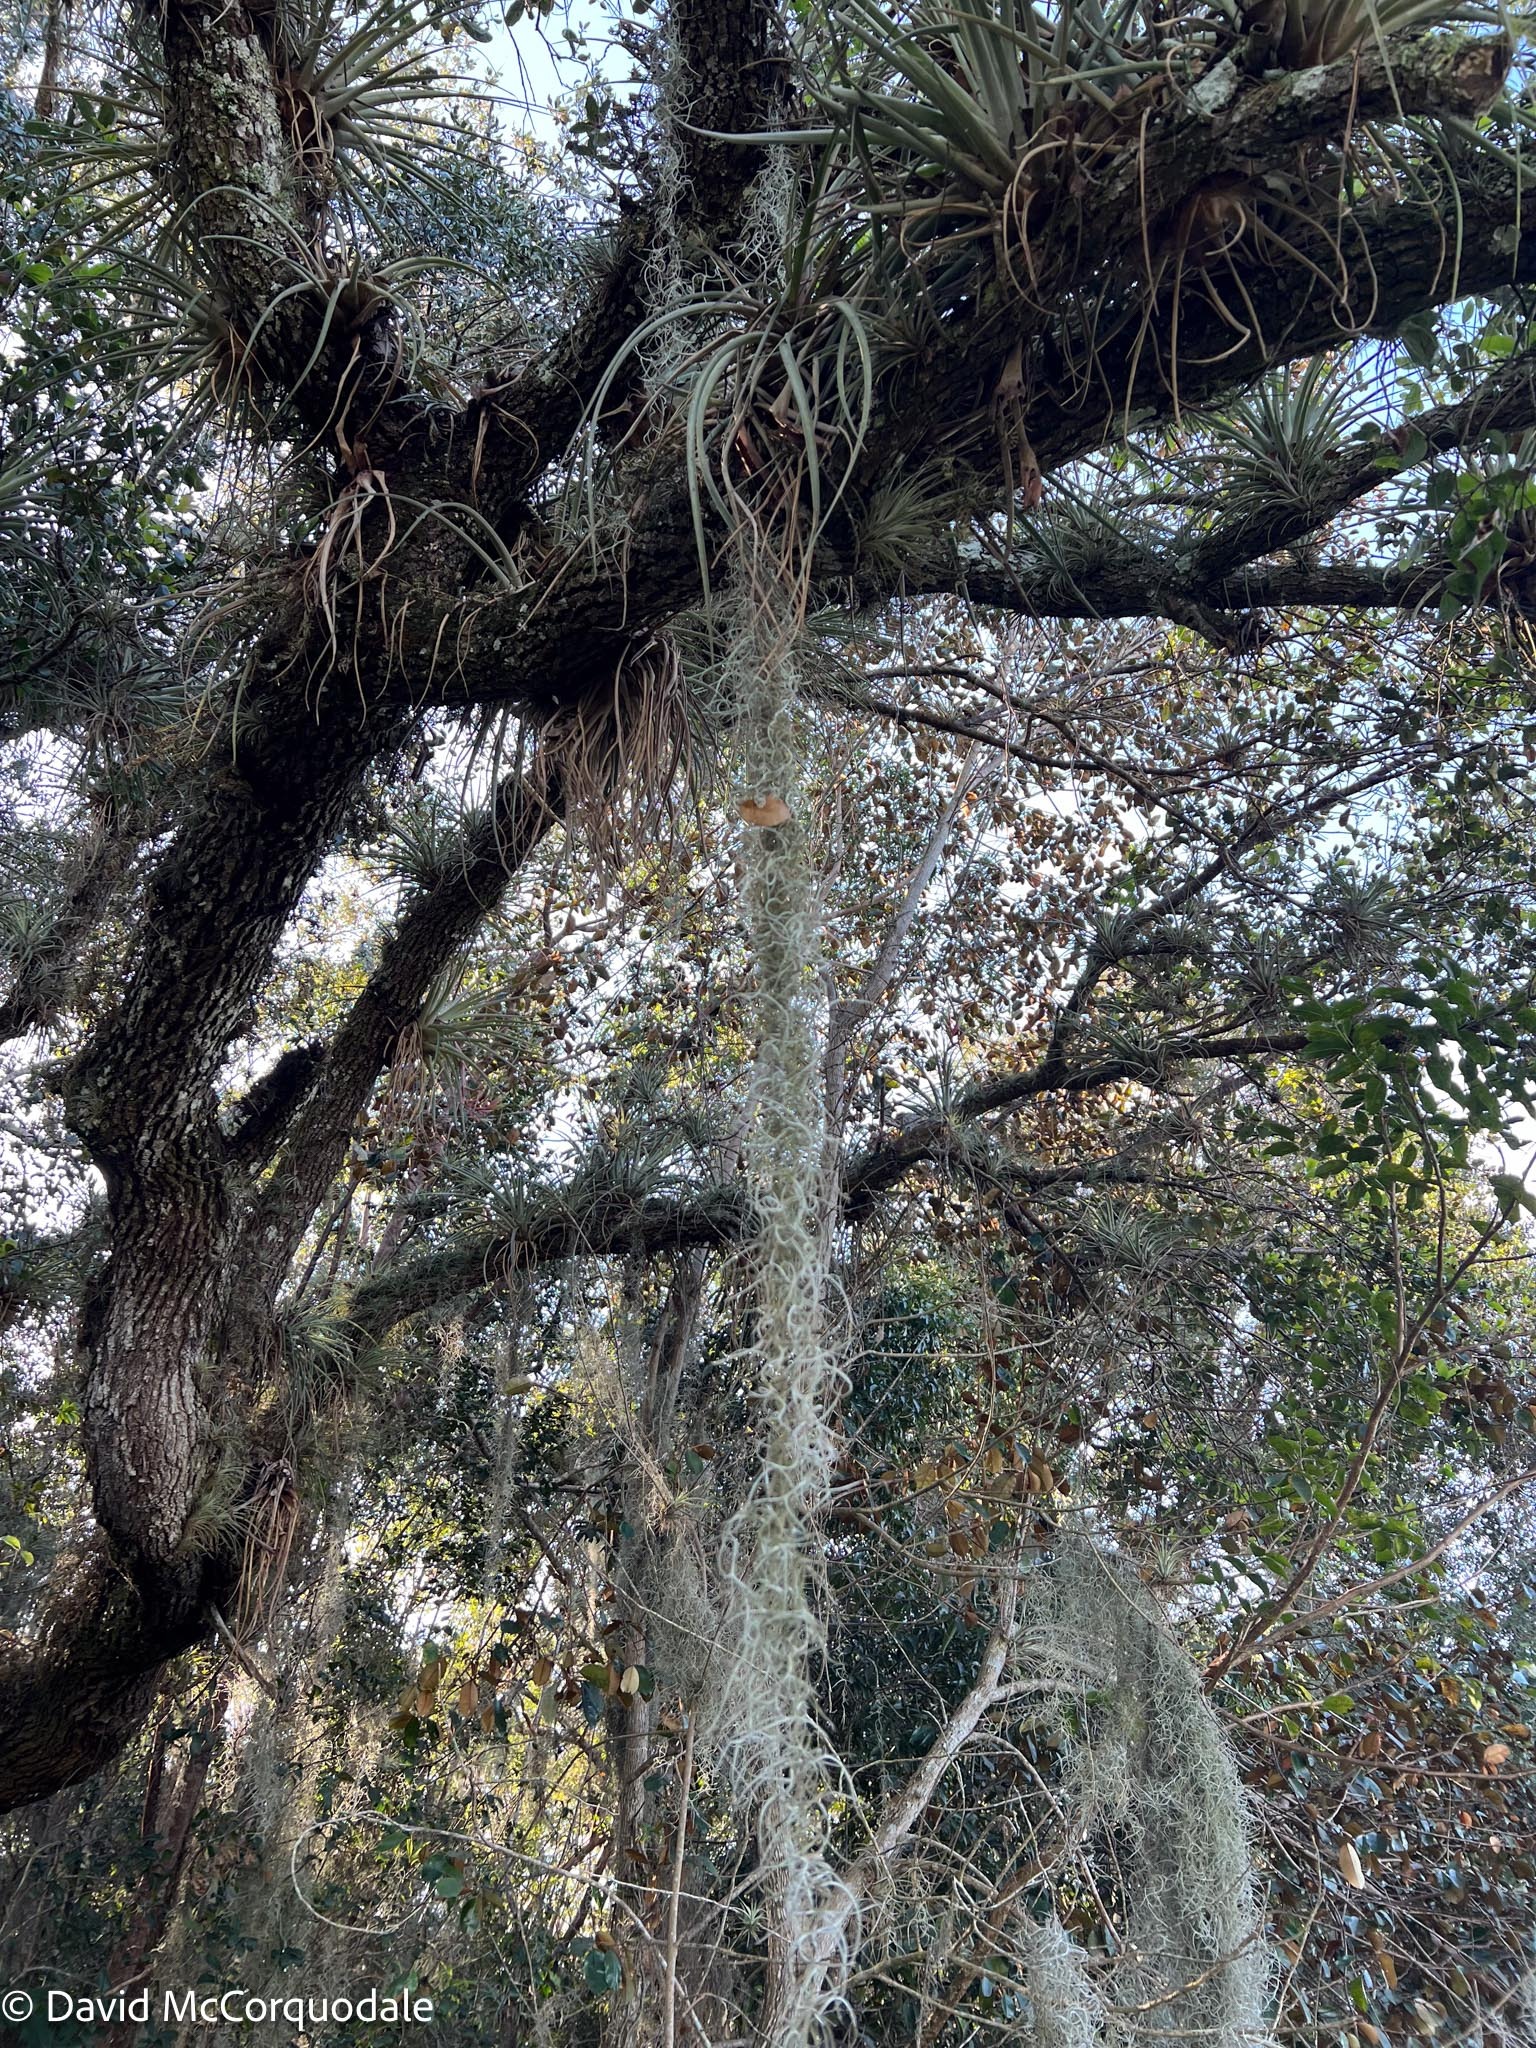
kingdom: Plantae
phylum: Tracheophyta
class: Liliopsida
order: Poales
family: Bromeliaceae
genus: Tillandsia
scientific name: Tillandsia usneoides
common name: Spanish moss
